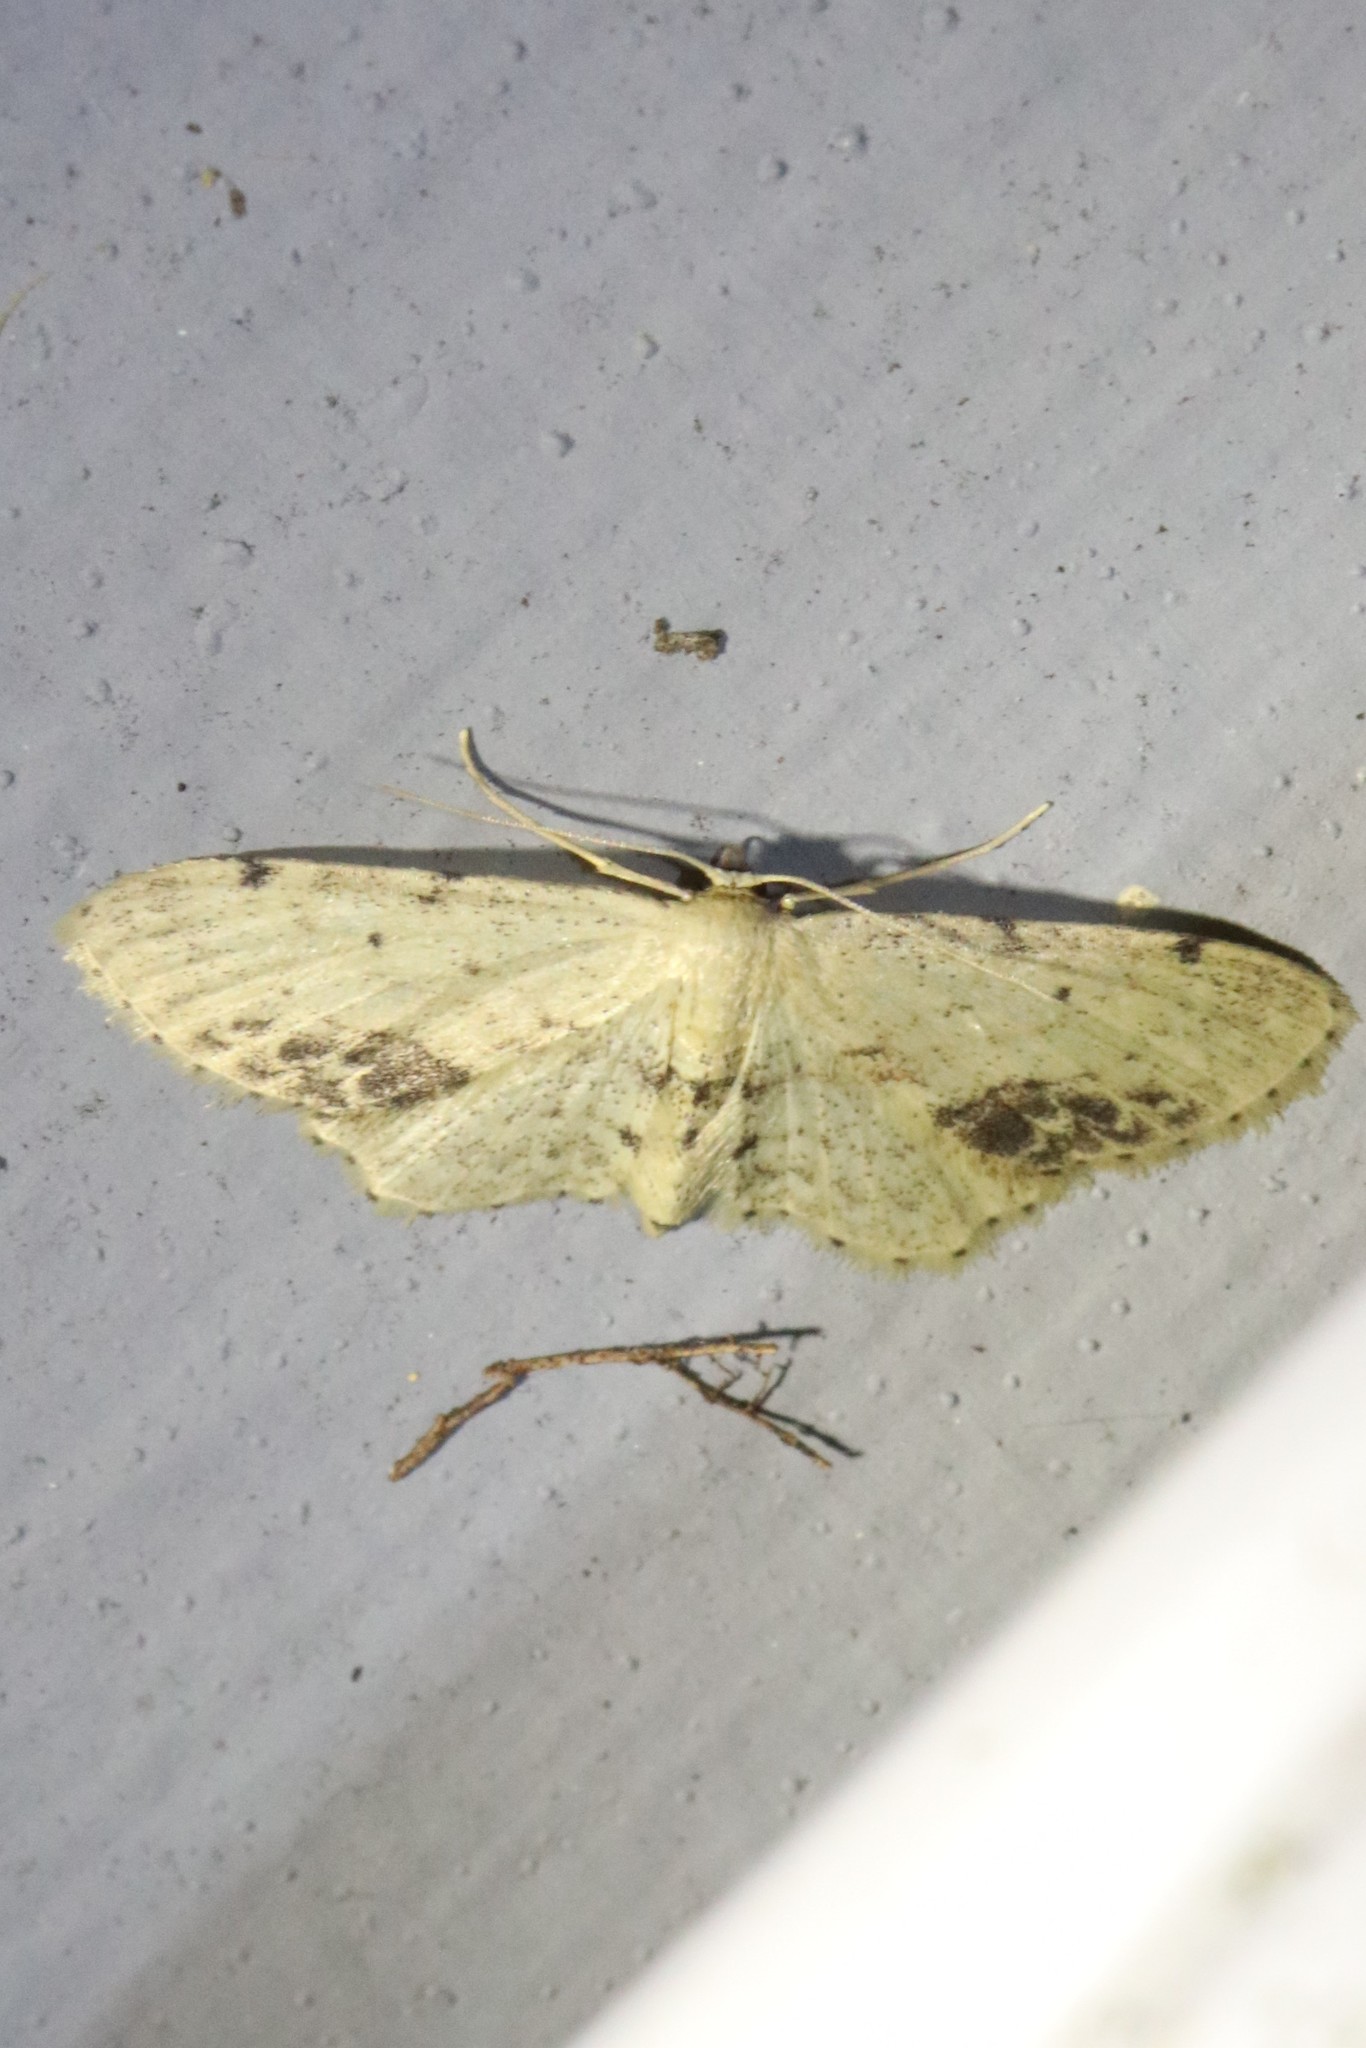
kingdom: Animalia
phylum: Arthropoda
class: Insecta
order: Lepidoptera
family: Geometridae
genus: Idaea
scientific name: Idaea dimidiata
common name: Single-dotted wave
